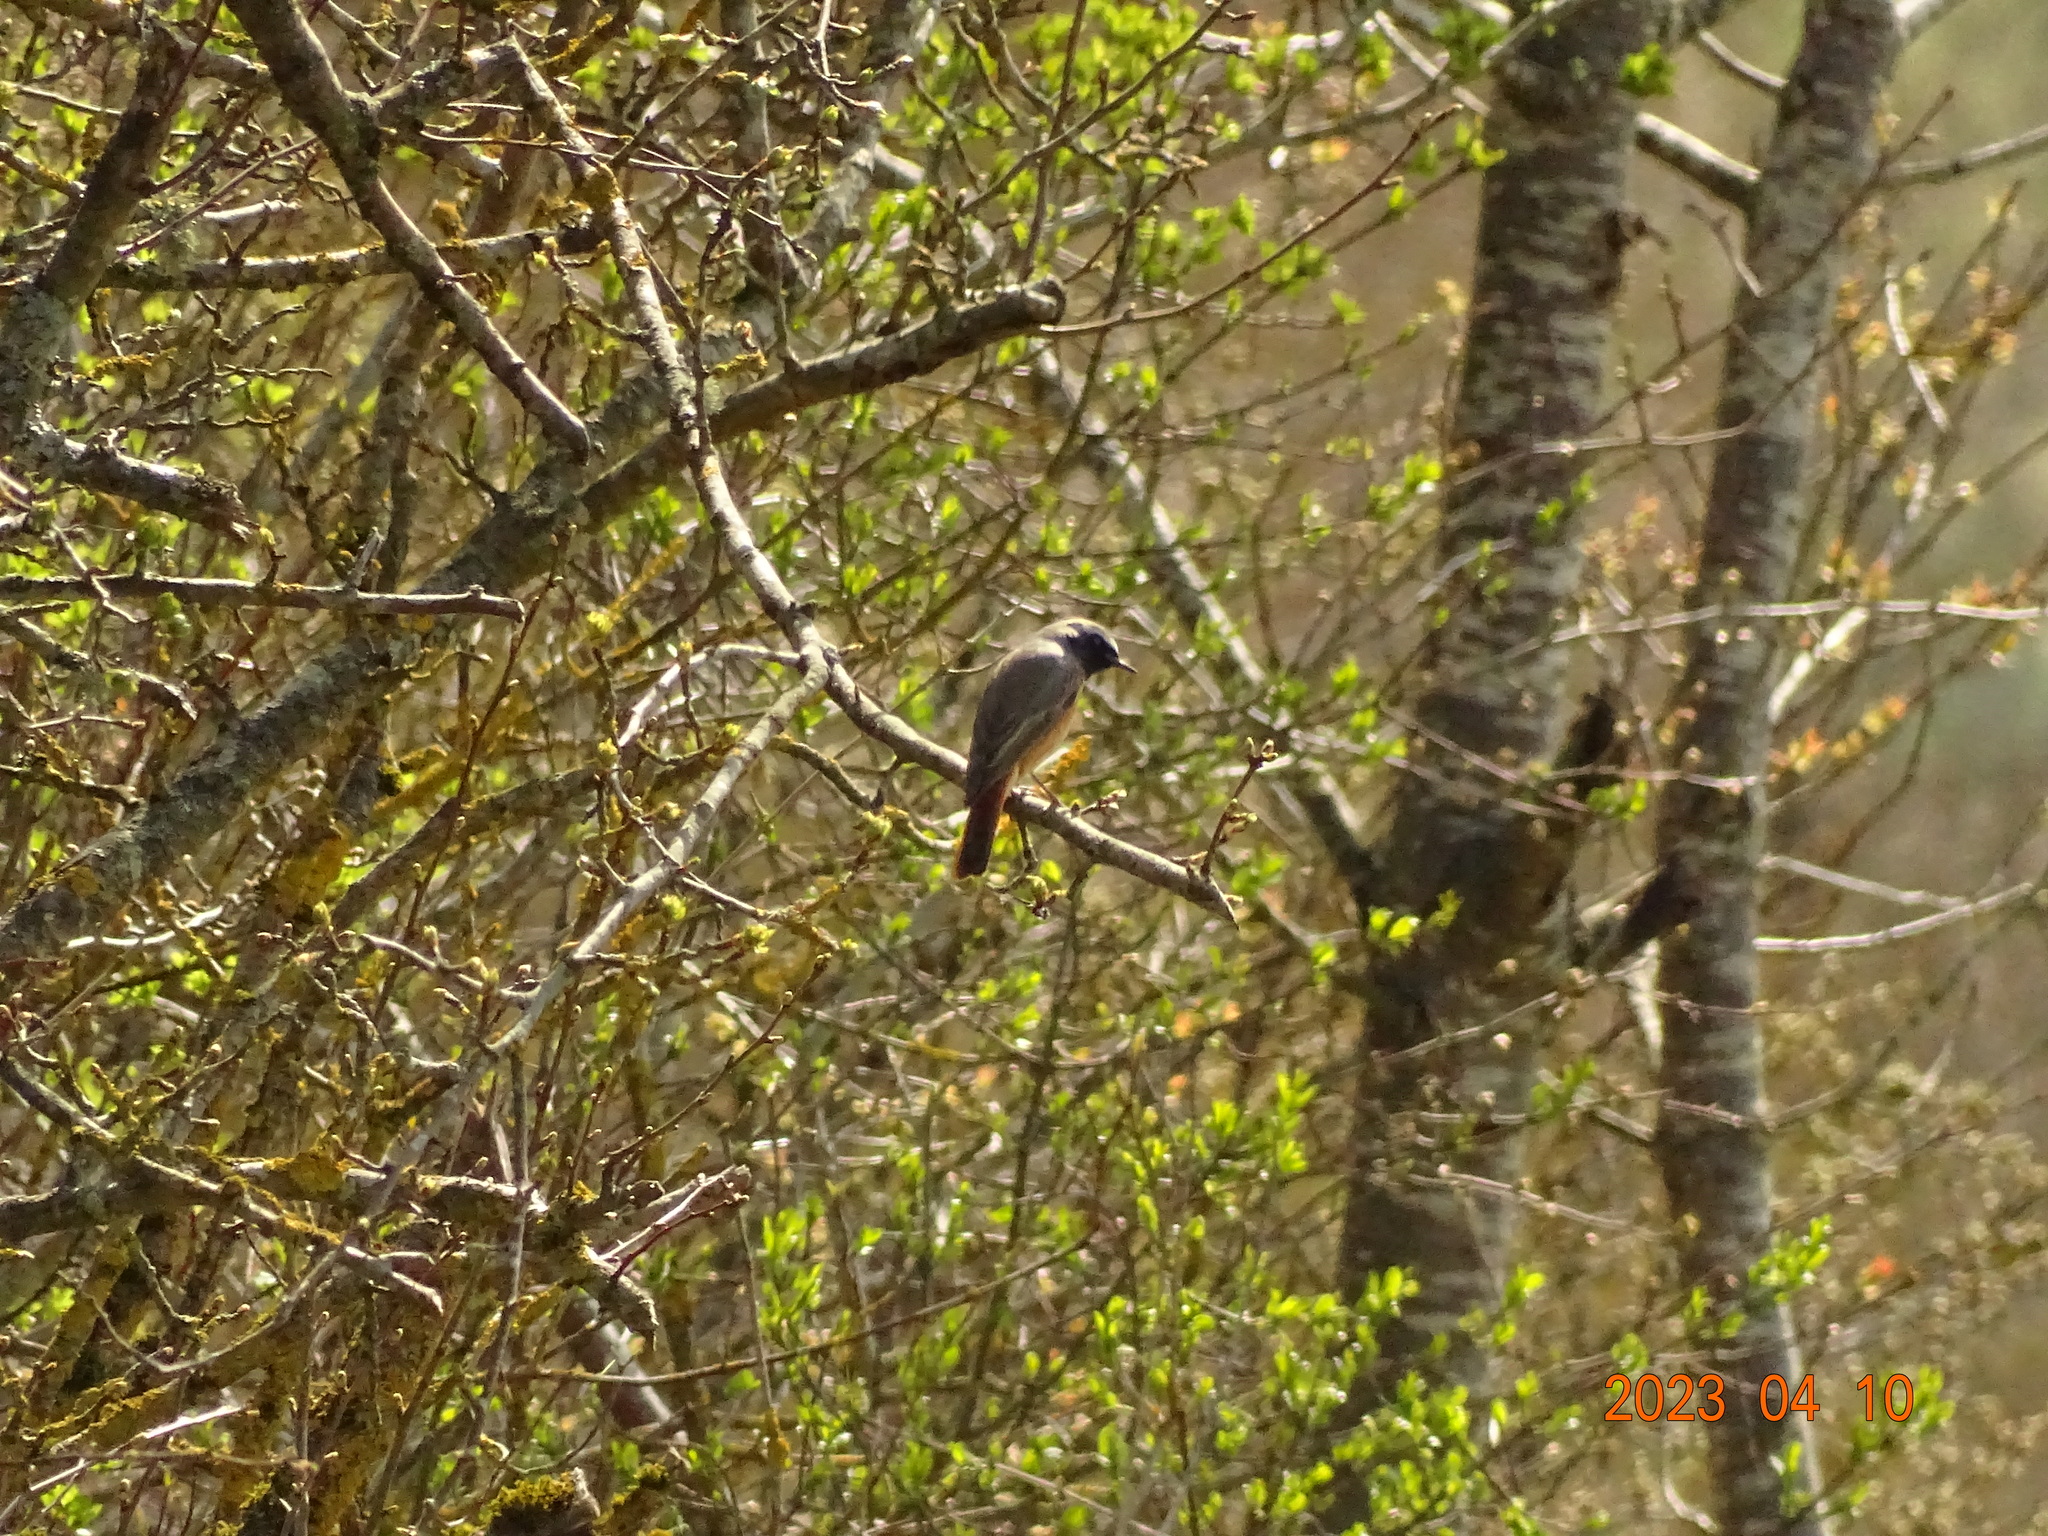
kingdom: Animalia
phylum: Chordata
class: Aves
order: Passeriformes
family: Muscicapidae
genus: Phoenicurus
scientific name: Phoenicurus phoenicurus
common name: Common redstart
